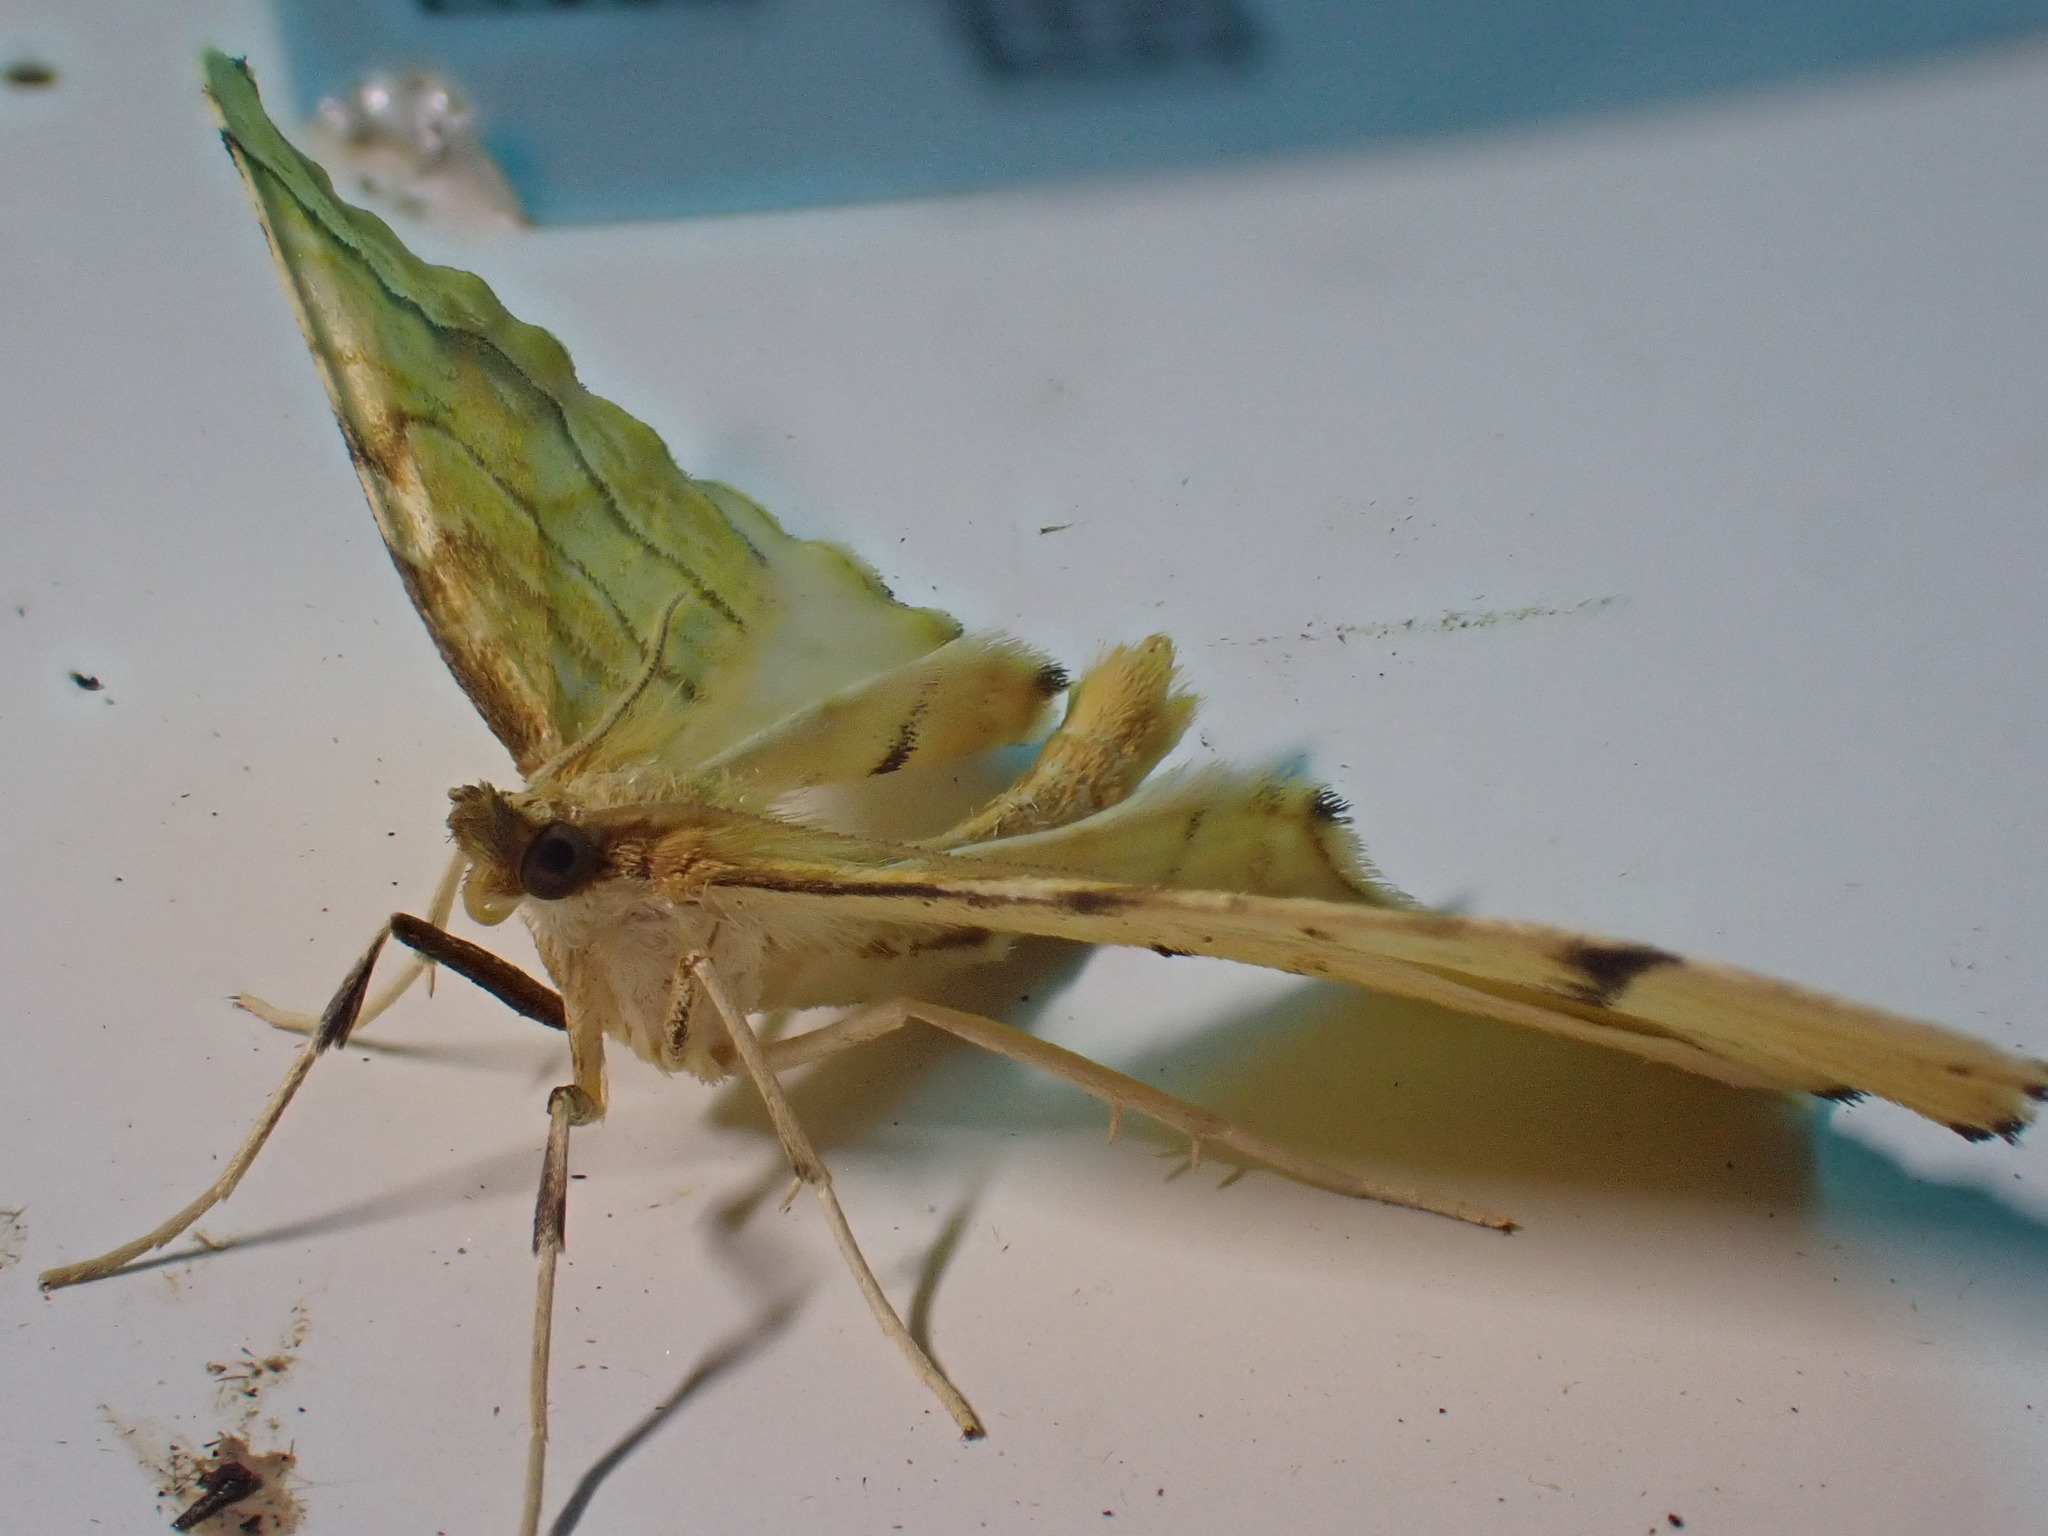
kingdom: Animalia
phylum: Arthropoda
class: Insecta
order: Lepidoptera
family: Geometridae
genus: Eulithis
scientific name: Eulithis mellinata
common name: Spinach
